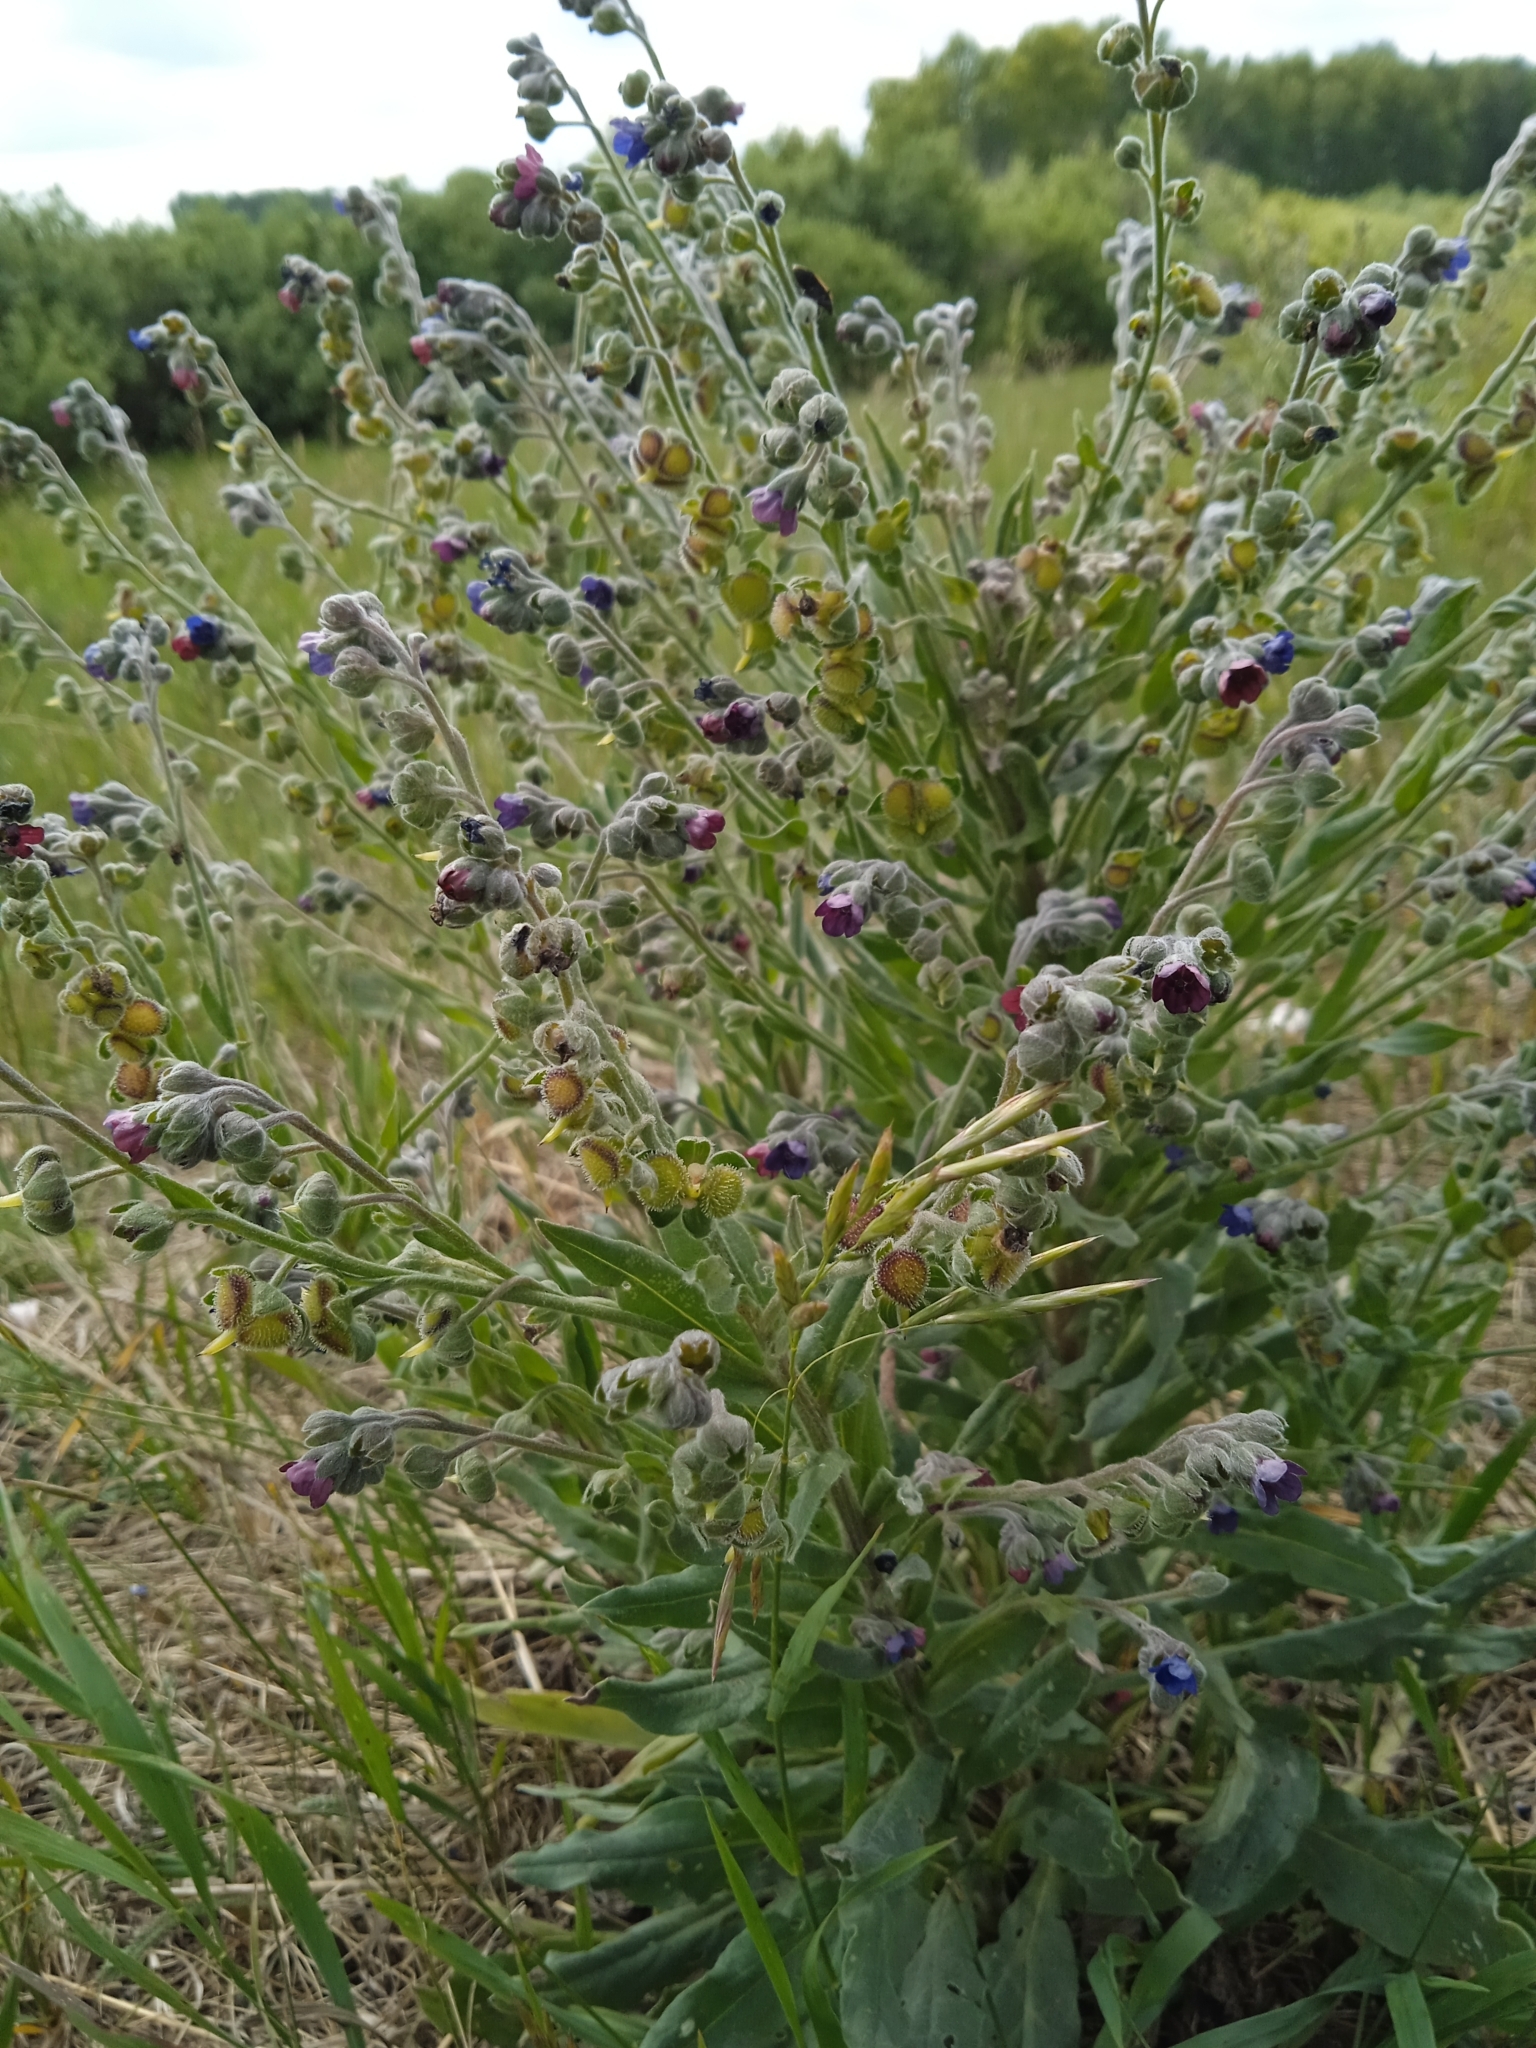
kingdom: Plantae
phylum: Tracheophyta
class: Magnoliopsida
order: Boraginales
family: Boraginaceae
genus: Cynoglossum
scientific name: Cynoglossum officinale
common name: Hound's-tongue
